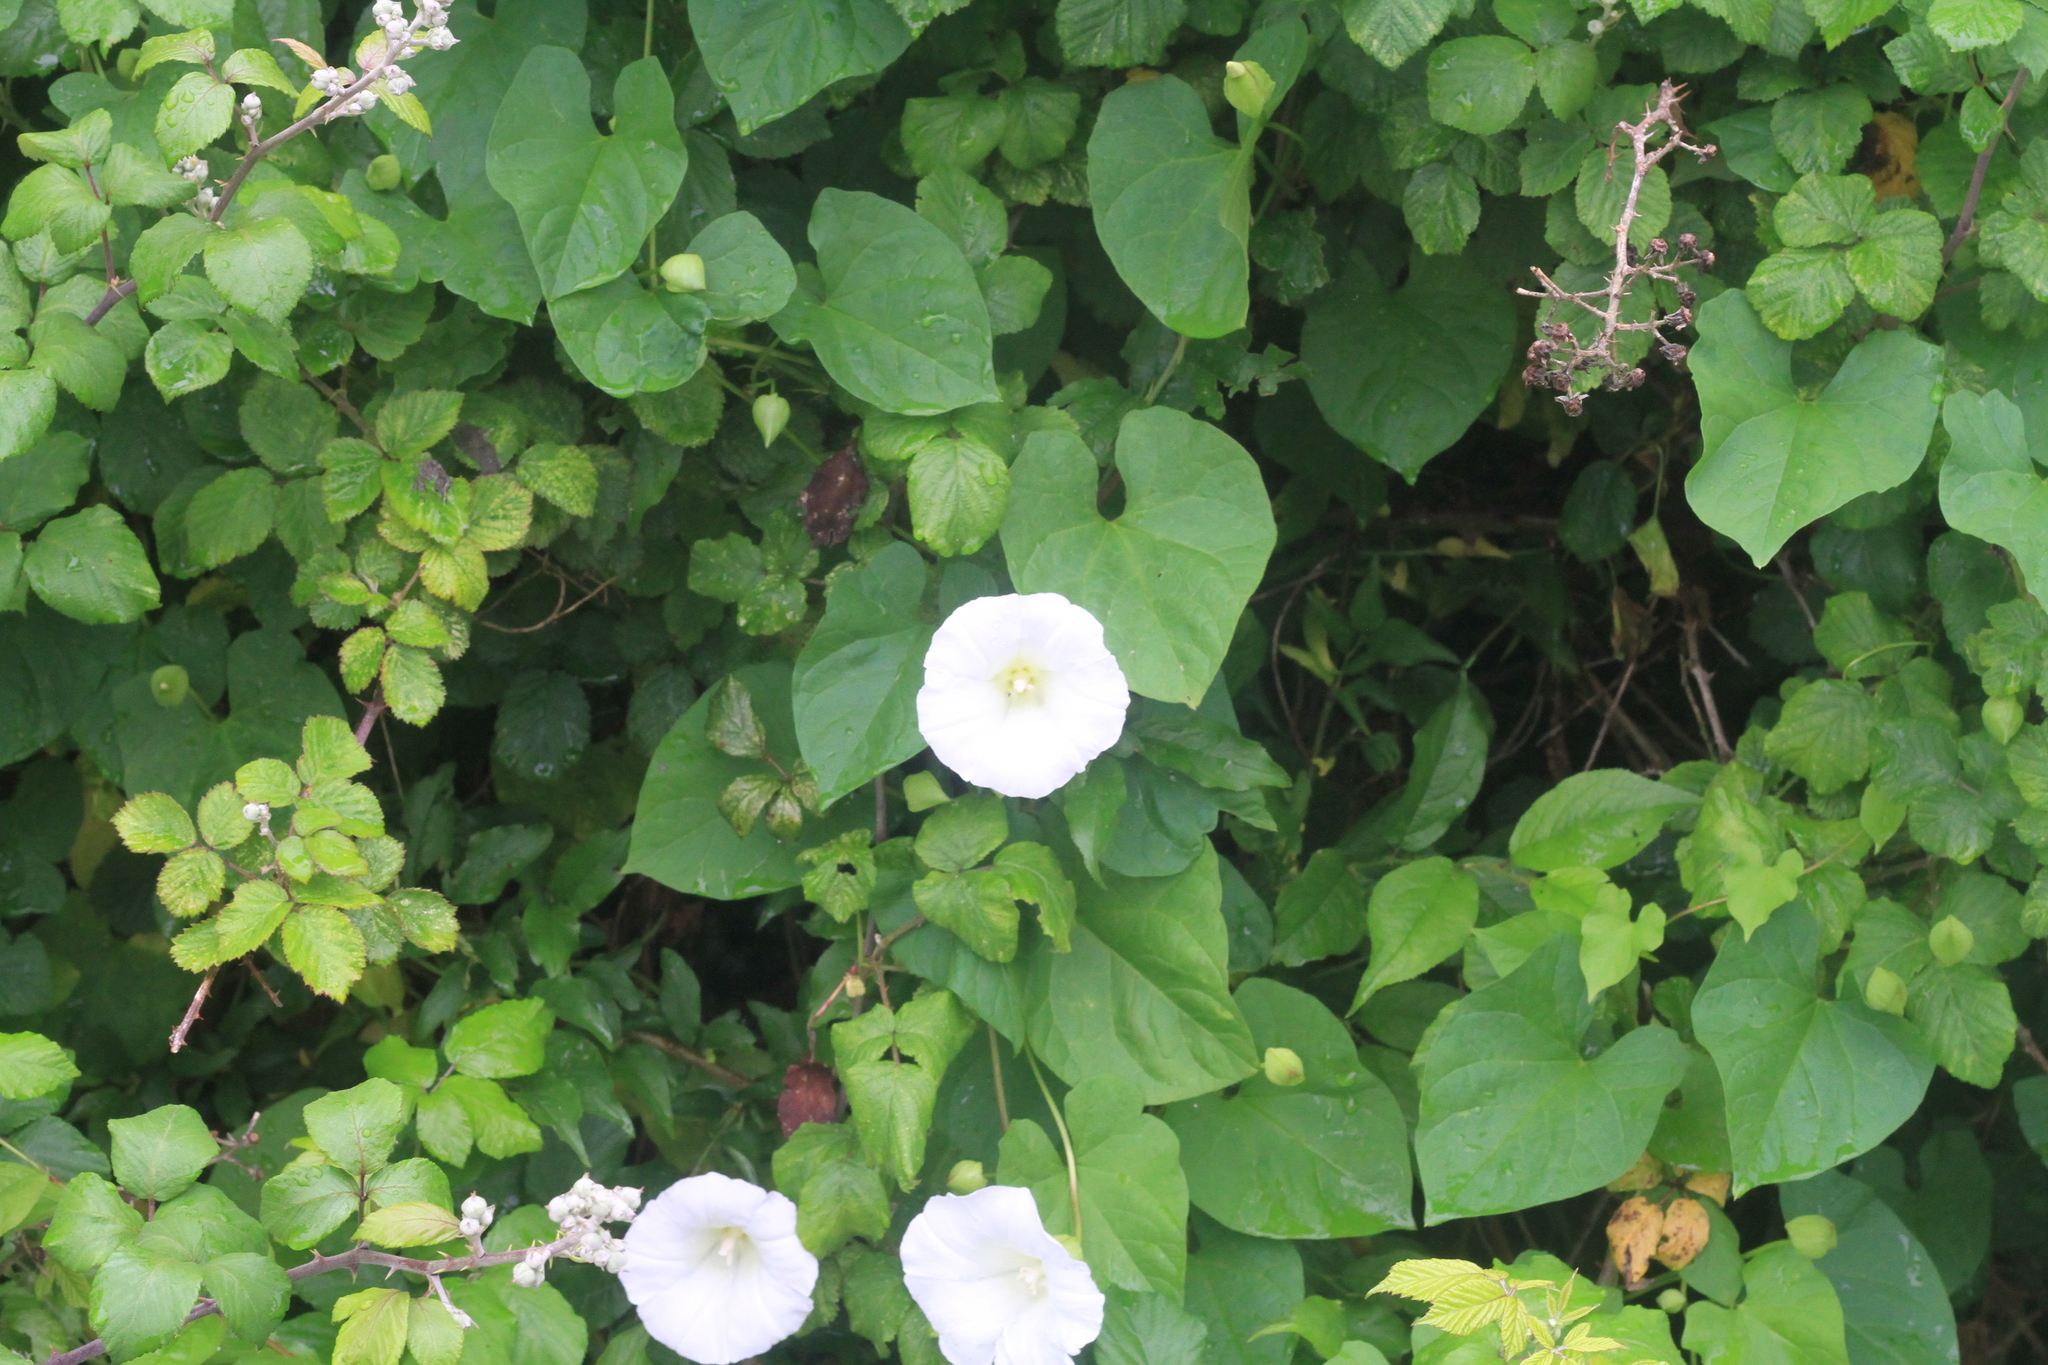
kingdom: Plantae
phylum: Tracheophyta
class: Magnoliopsida
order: Solanales
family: Convolvulaceae
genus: Calystegia
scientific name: Calystegia silvatica
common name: Large bindweed
